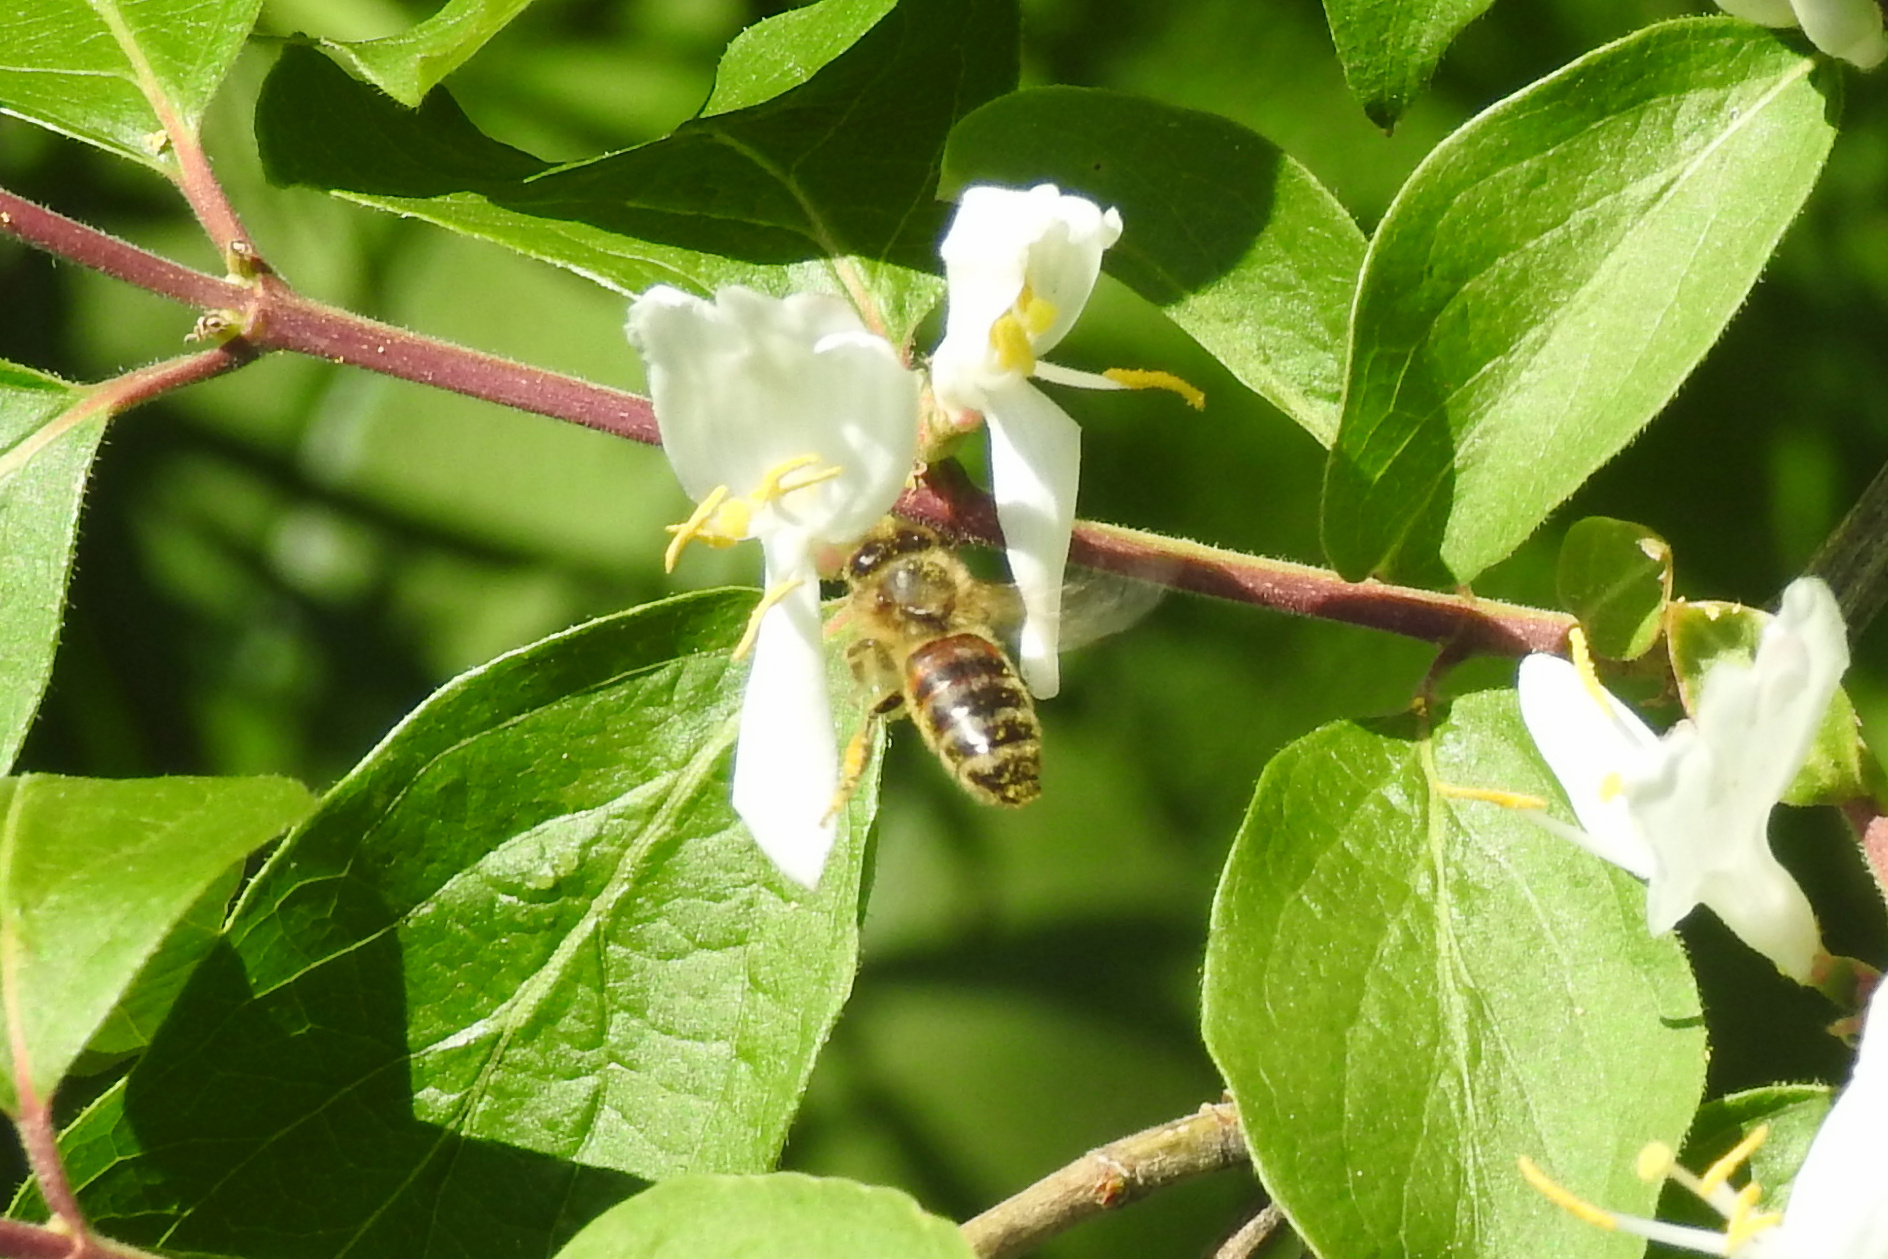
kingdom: Animalia
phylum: Arthropoda
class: Insecta
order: Hymenoptera
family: Apidae
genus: Apis
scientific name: Apis mellifera
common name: Honey bee
